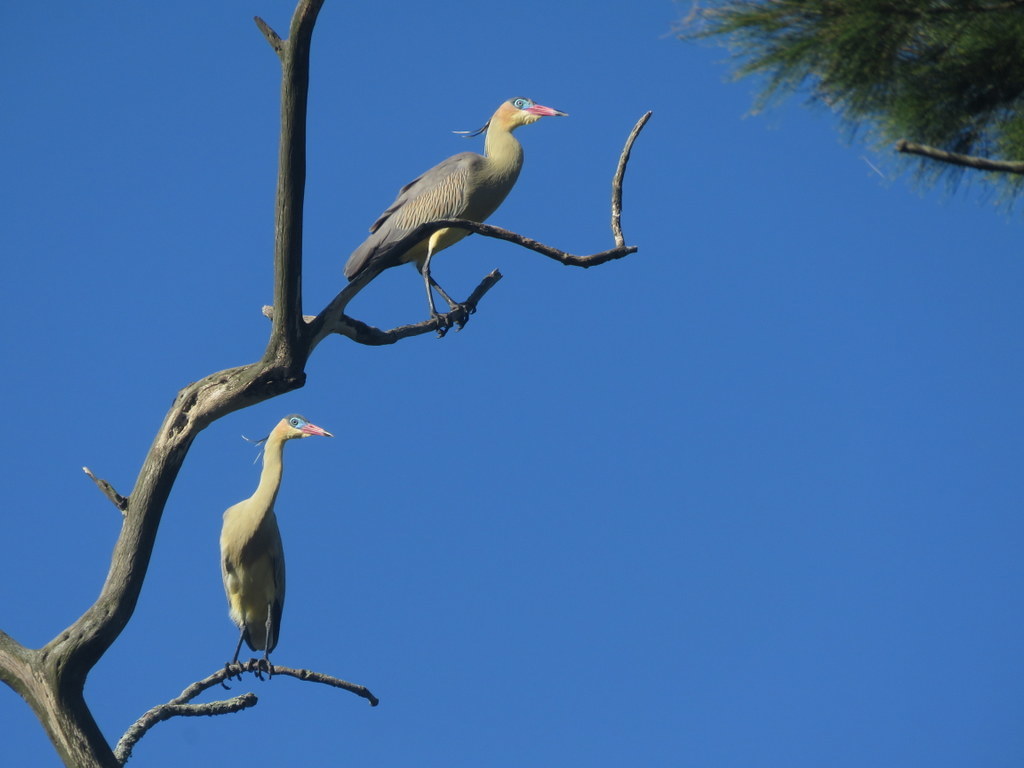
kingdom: Animalia
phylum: Chordata
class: Aves
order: Pelecaniformes
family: Ardeidae
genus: Syrigma
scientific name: Syrigma sibilatrix
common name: Whistling heron
